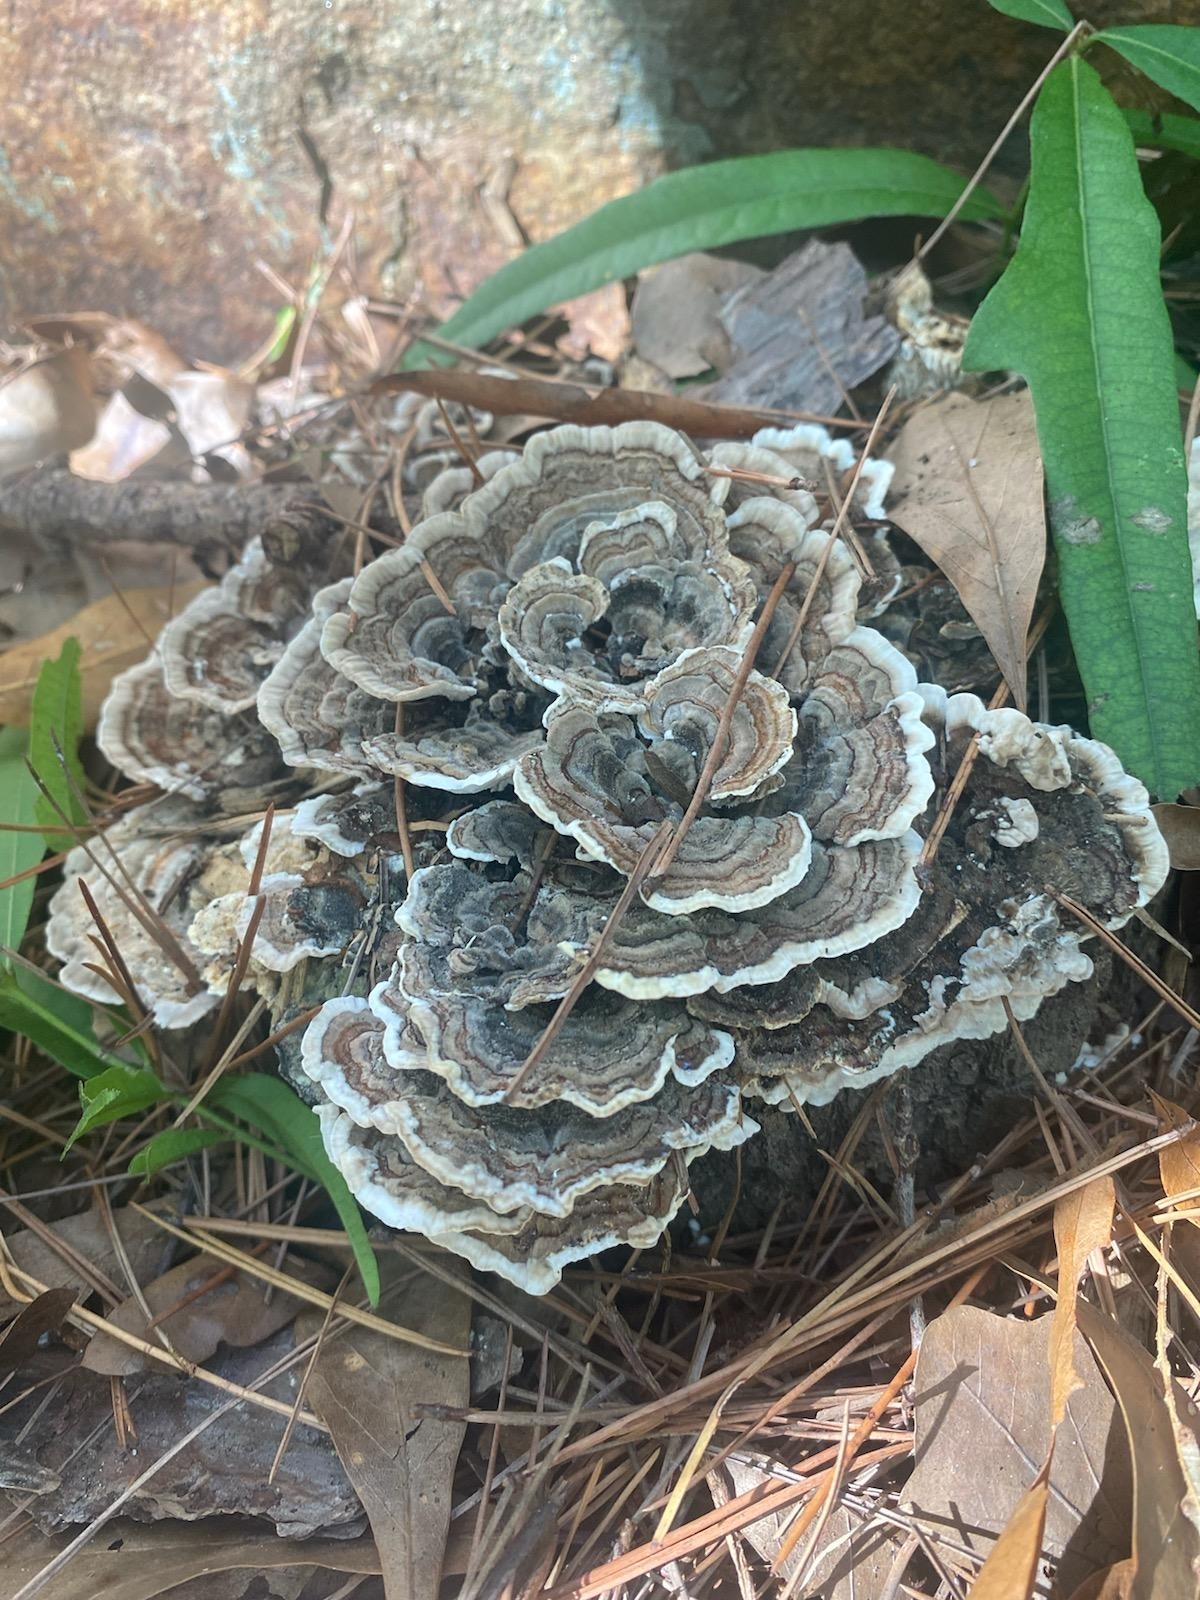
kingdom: Fungi
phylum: Basidiomycota
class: Agaricomycetes
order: Polyporales
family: Polyporaceae
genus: Trametes
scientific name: Trametes versicolor
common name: Turkeytail
